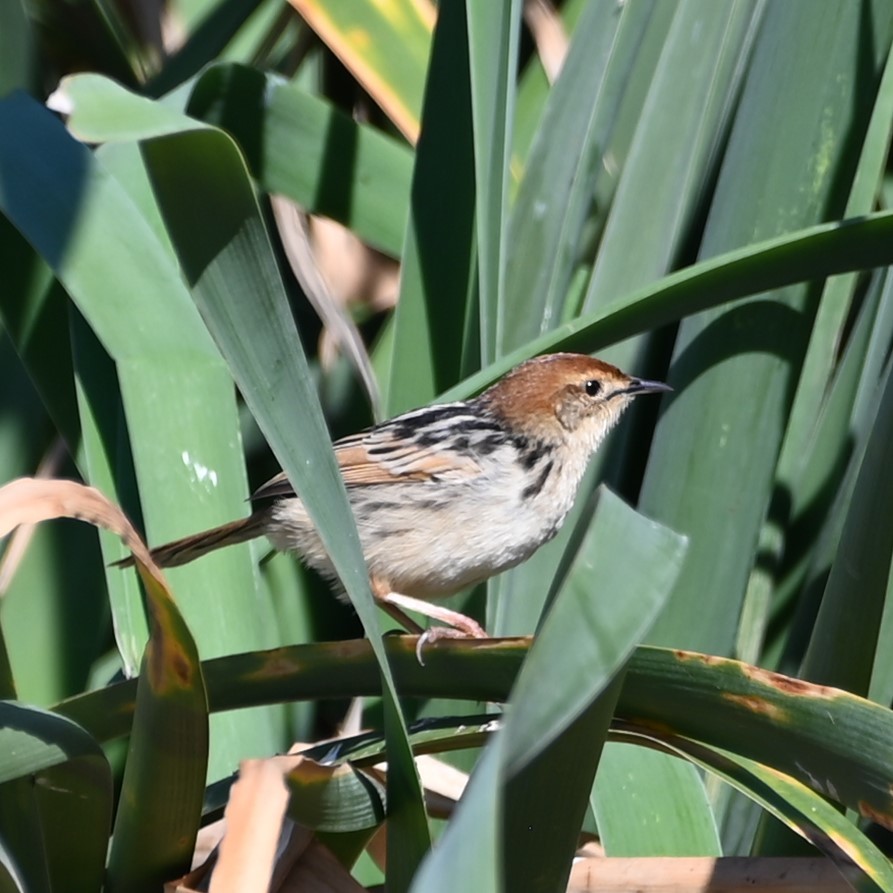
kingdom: Animalia
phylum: Chordata
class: Aves
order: Passeriformes
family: Cisticolidae
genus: Cisticola
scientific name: Cisticola tinniens
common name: Levaillant's cisticola
